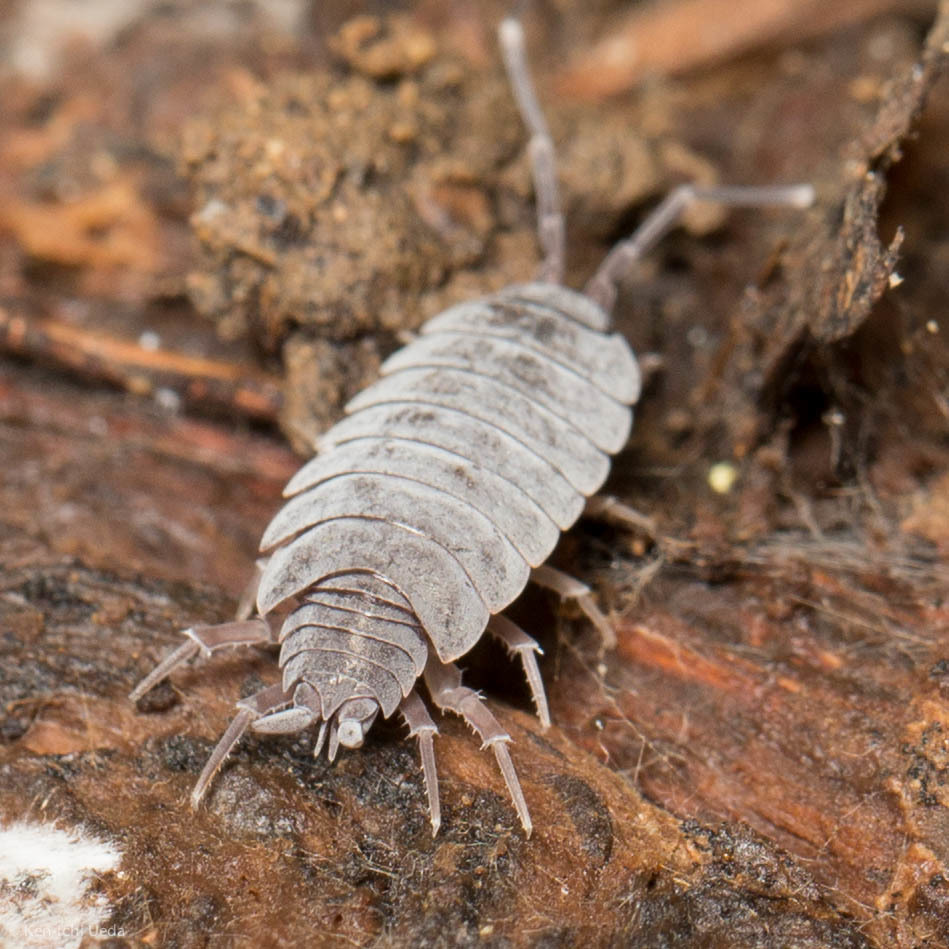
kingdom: Animalia
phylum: Arthropoda
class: Malacostraca
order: Isopoda
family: Porcellionidae
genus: Porcellionides
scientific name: Porcellionides
